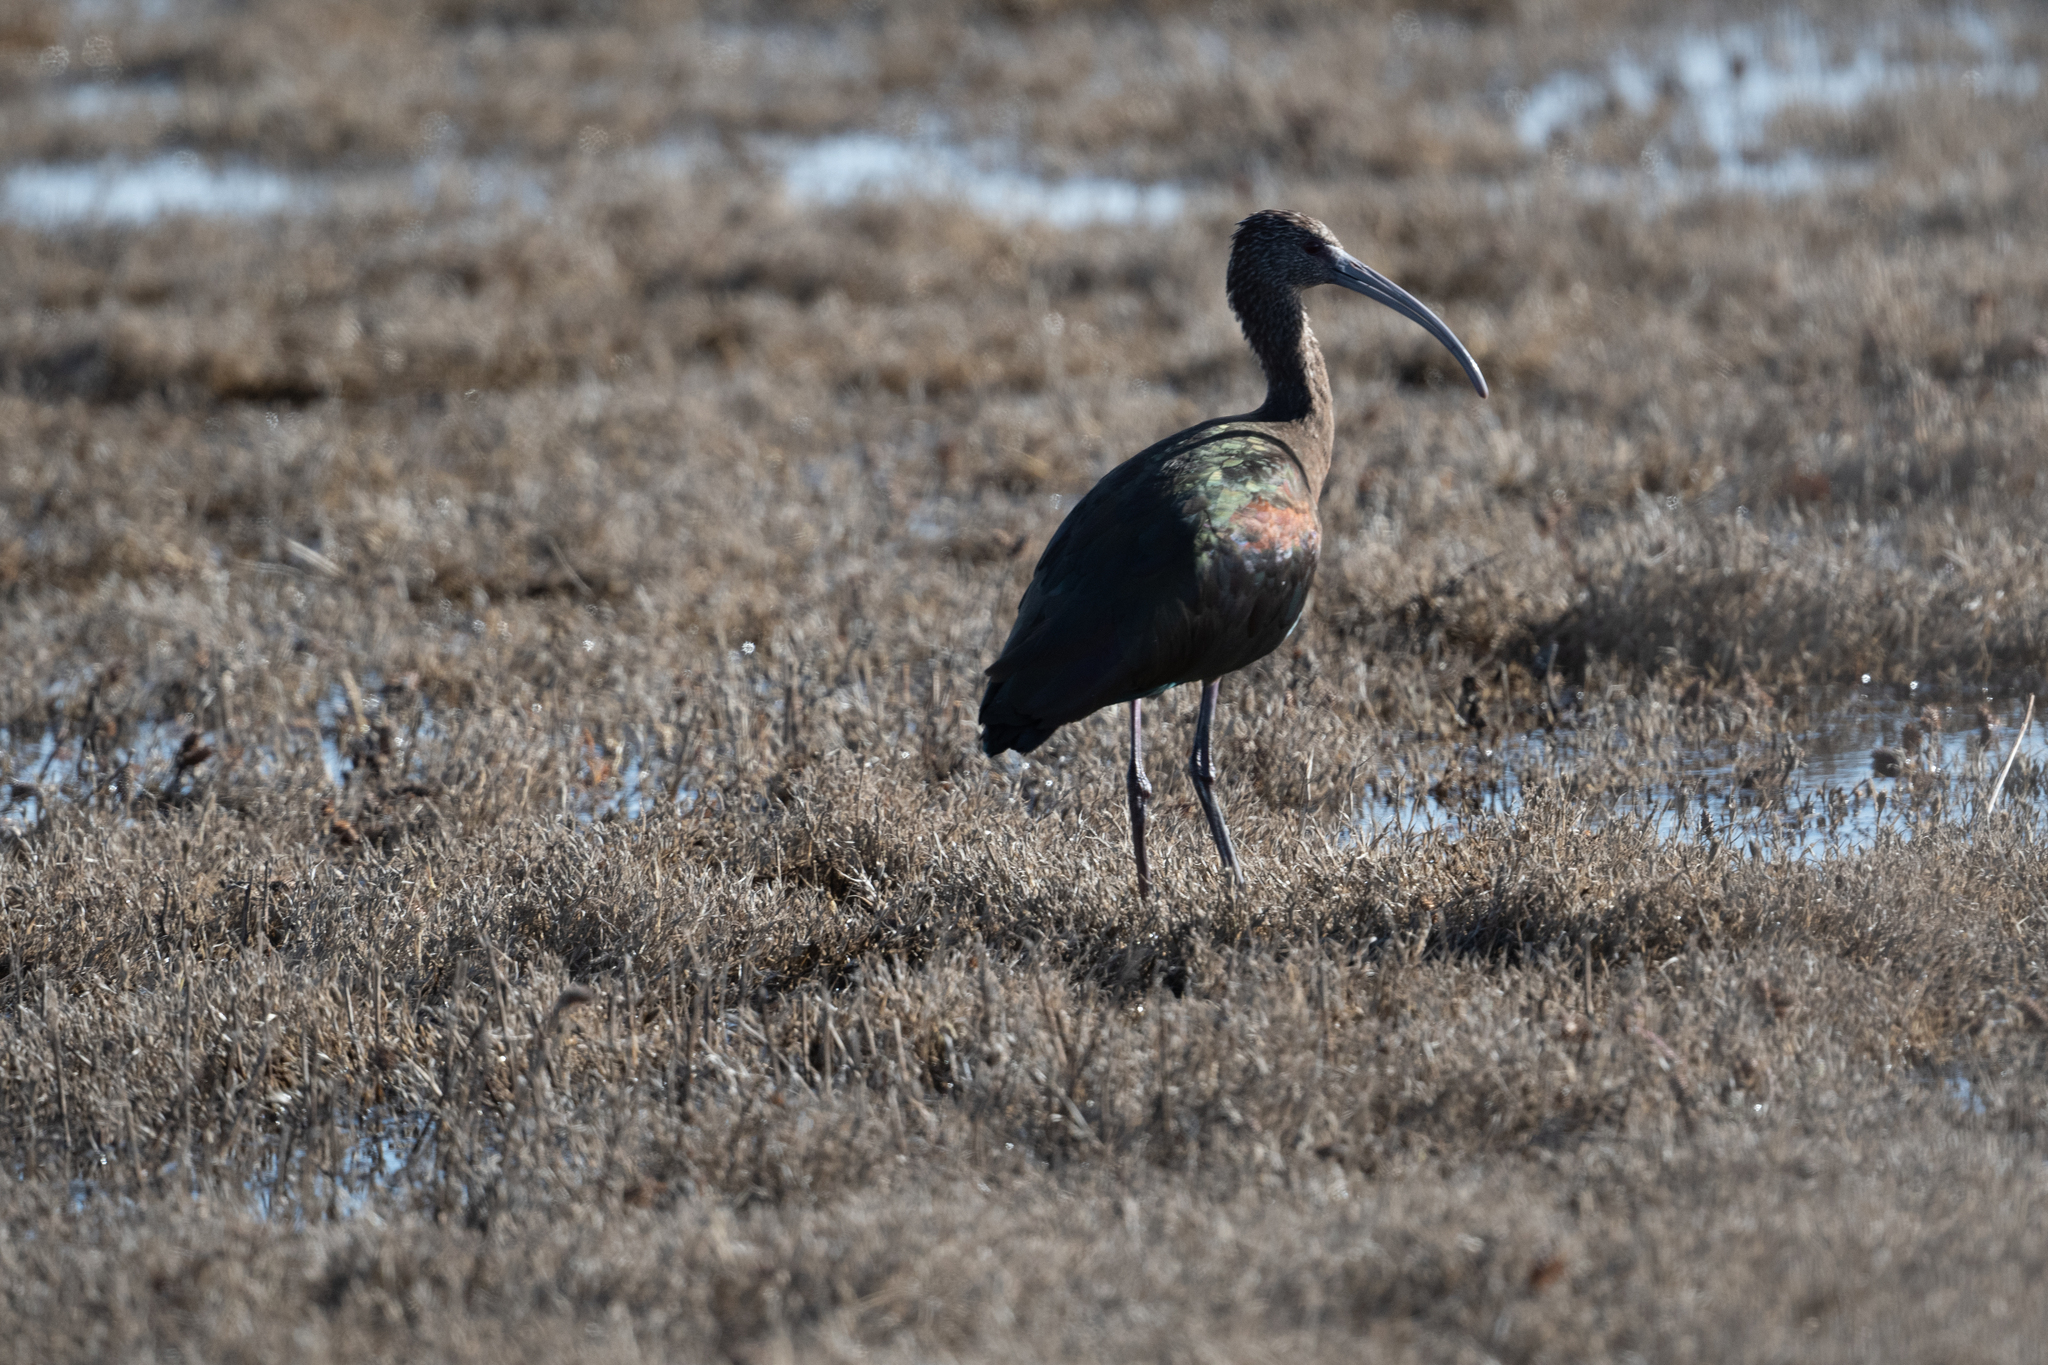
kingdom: Animalia
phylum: Chordata
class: Aves
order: Pelecaniformes
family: Threskiornithidae
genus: Plegadis
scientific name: Plegadis chihi
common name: White-faced ibis
